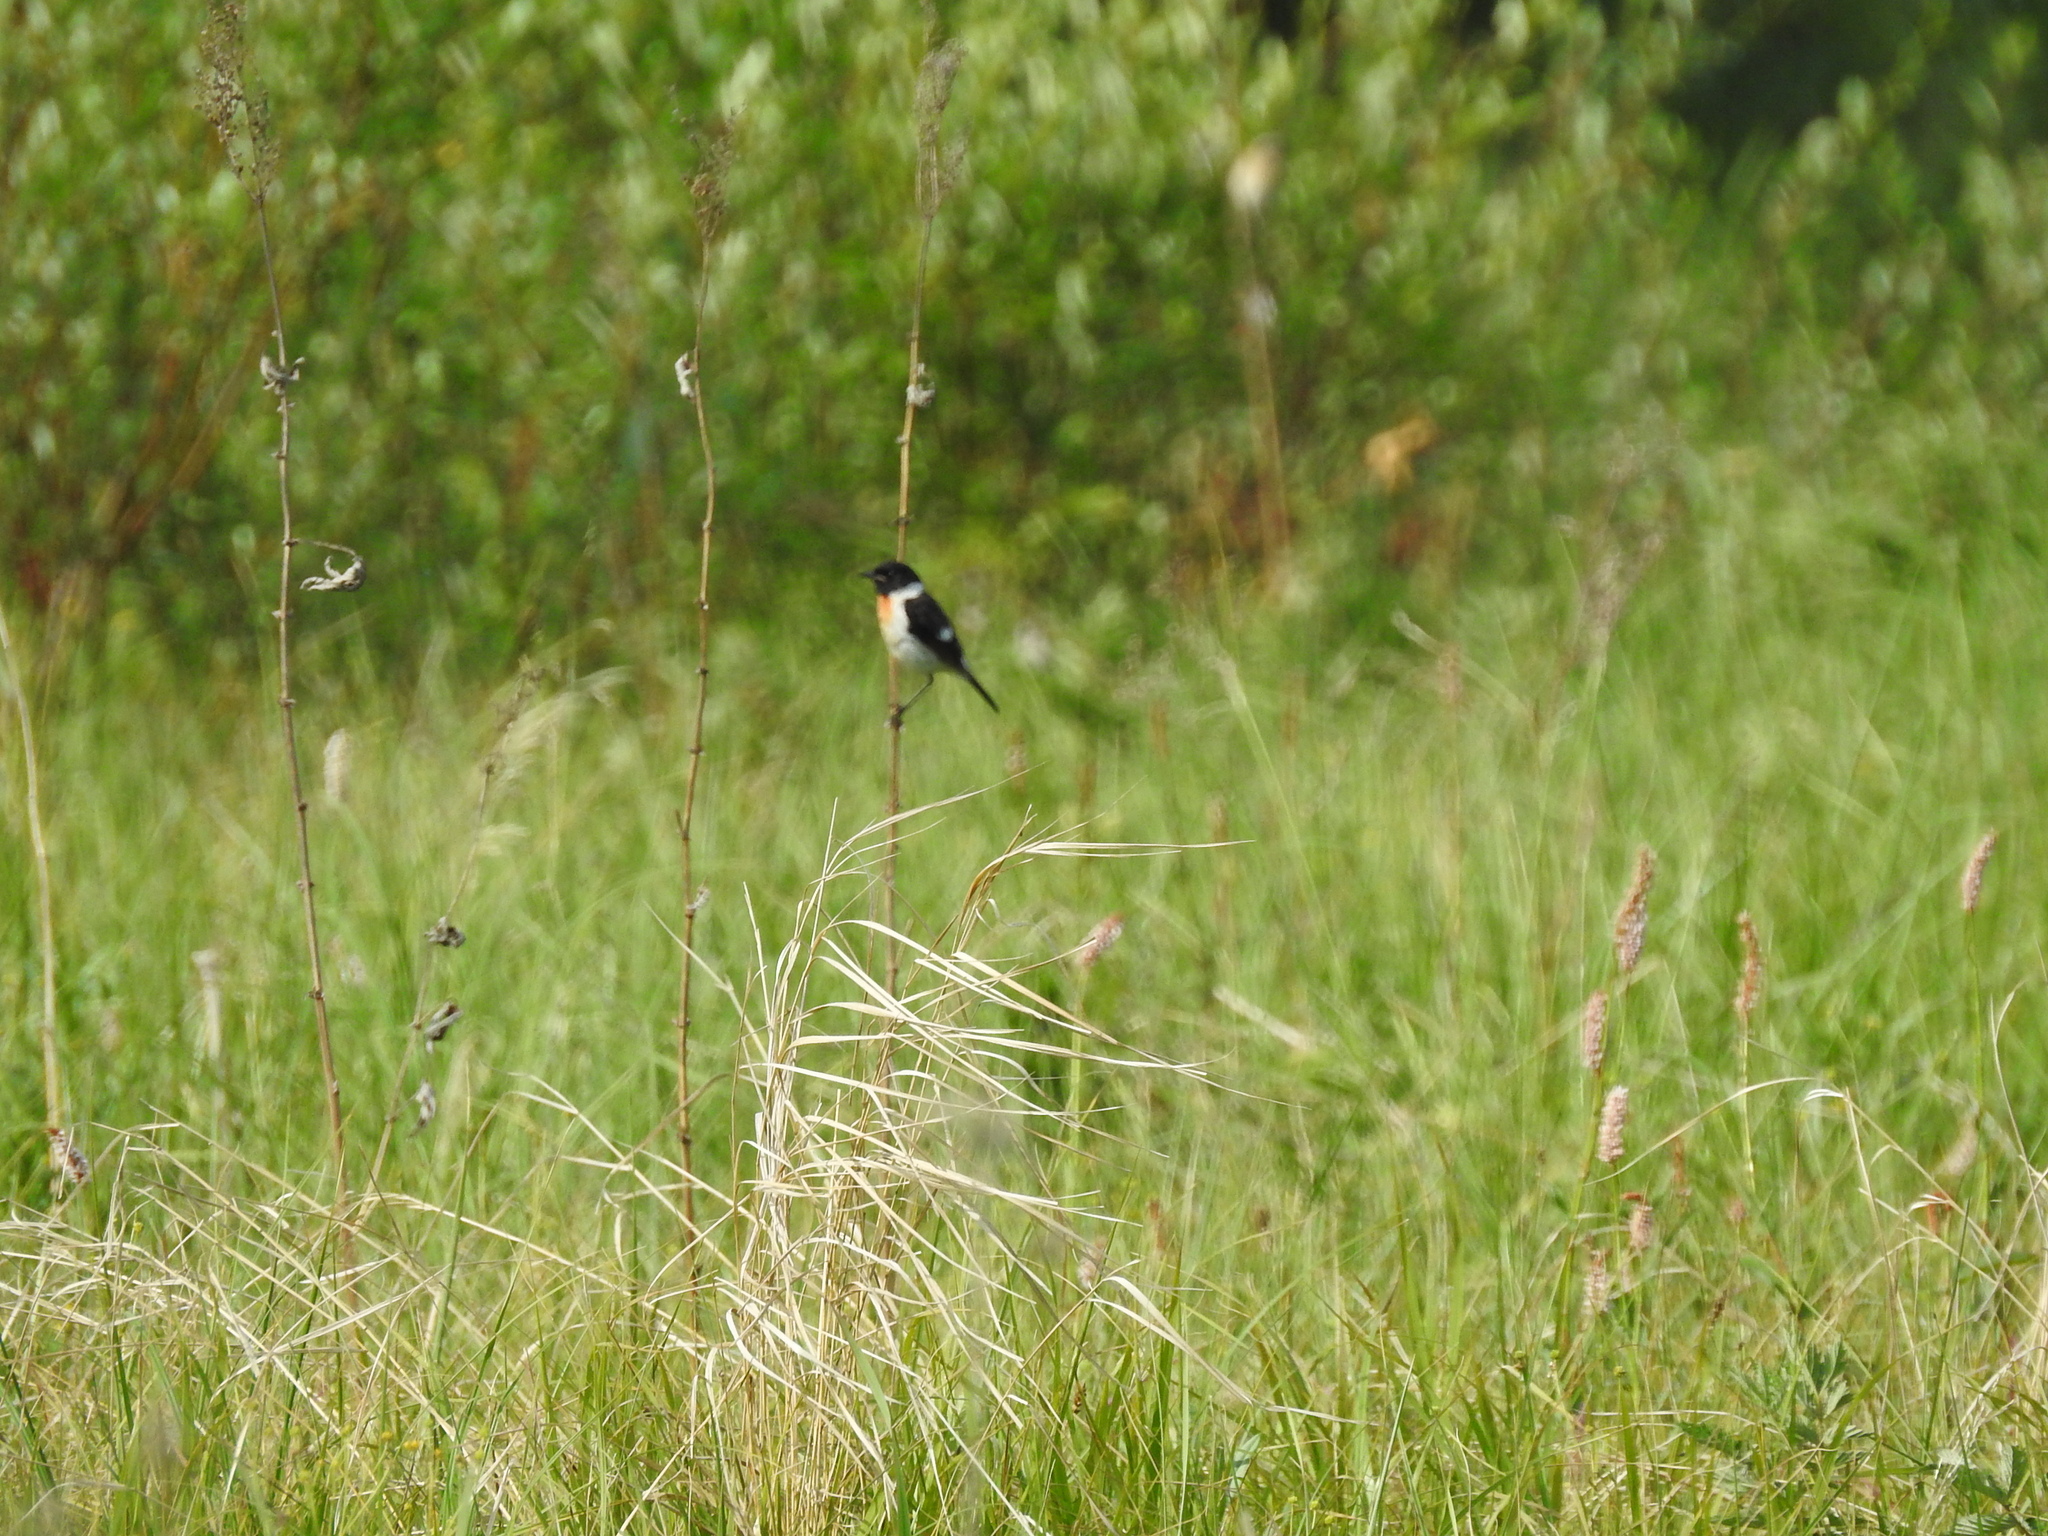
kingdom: Animalia
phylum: Chordata
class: Aves
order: Passeriformes
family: Muscicapidae
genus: Saxicola
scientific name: Saxicola maurus
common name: Siberian stonechat
